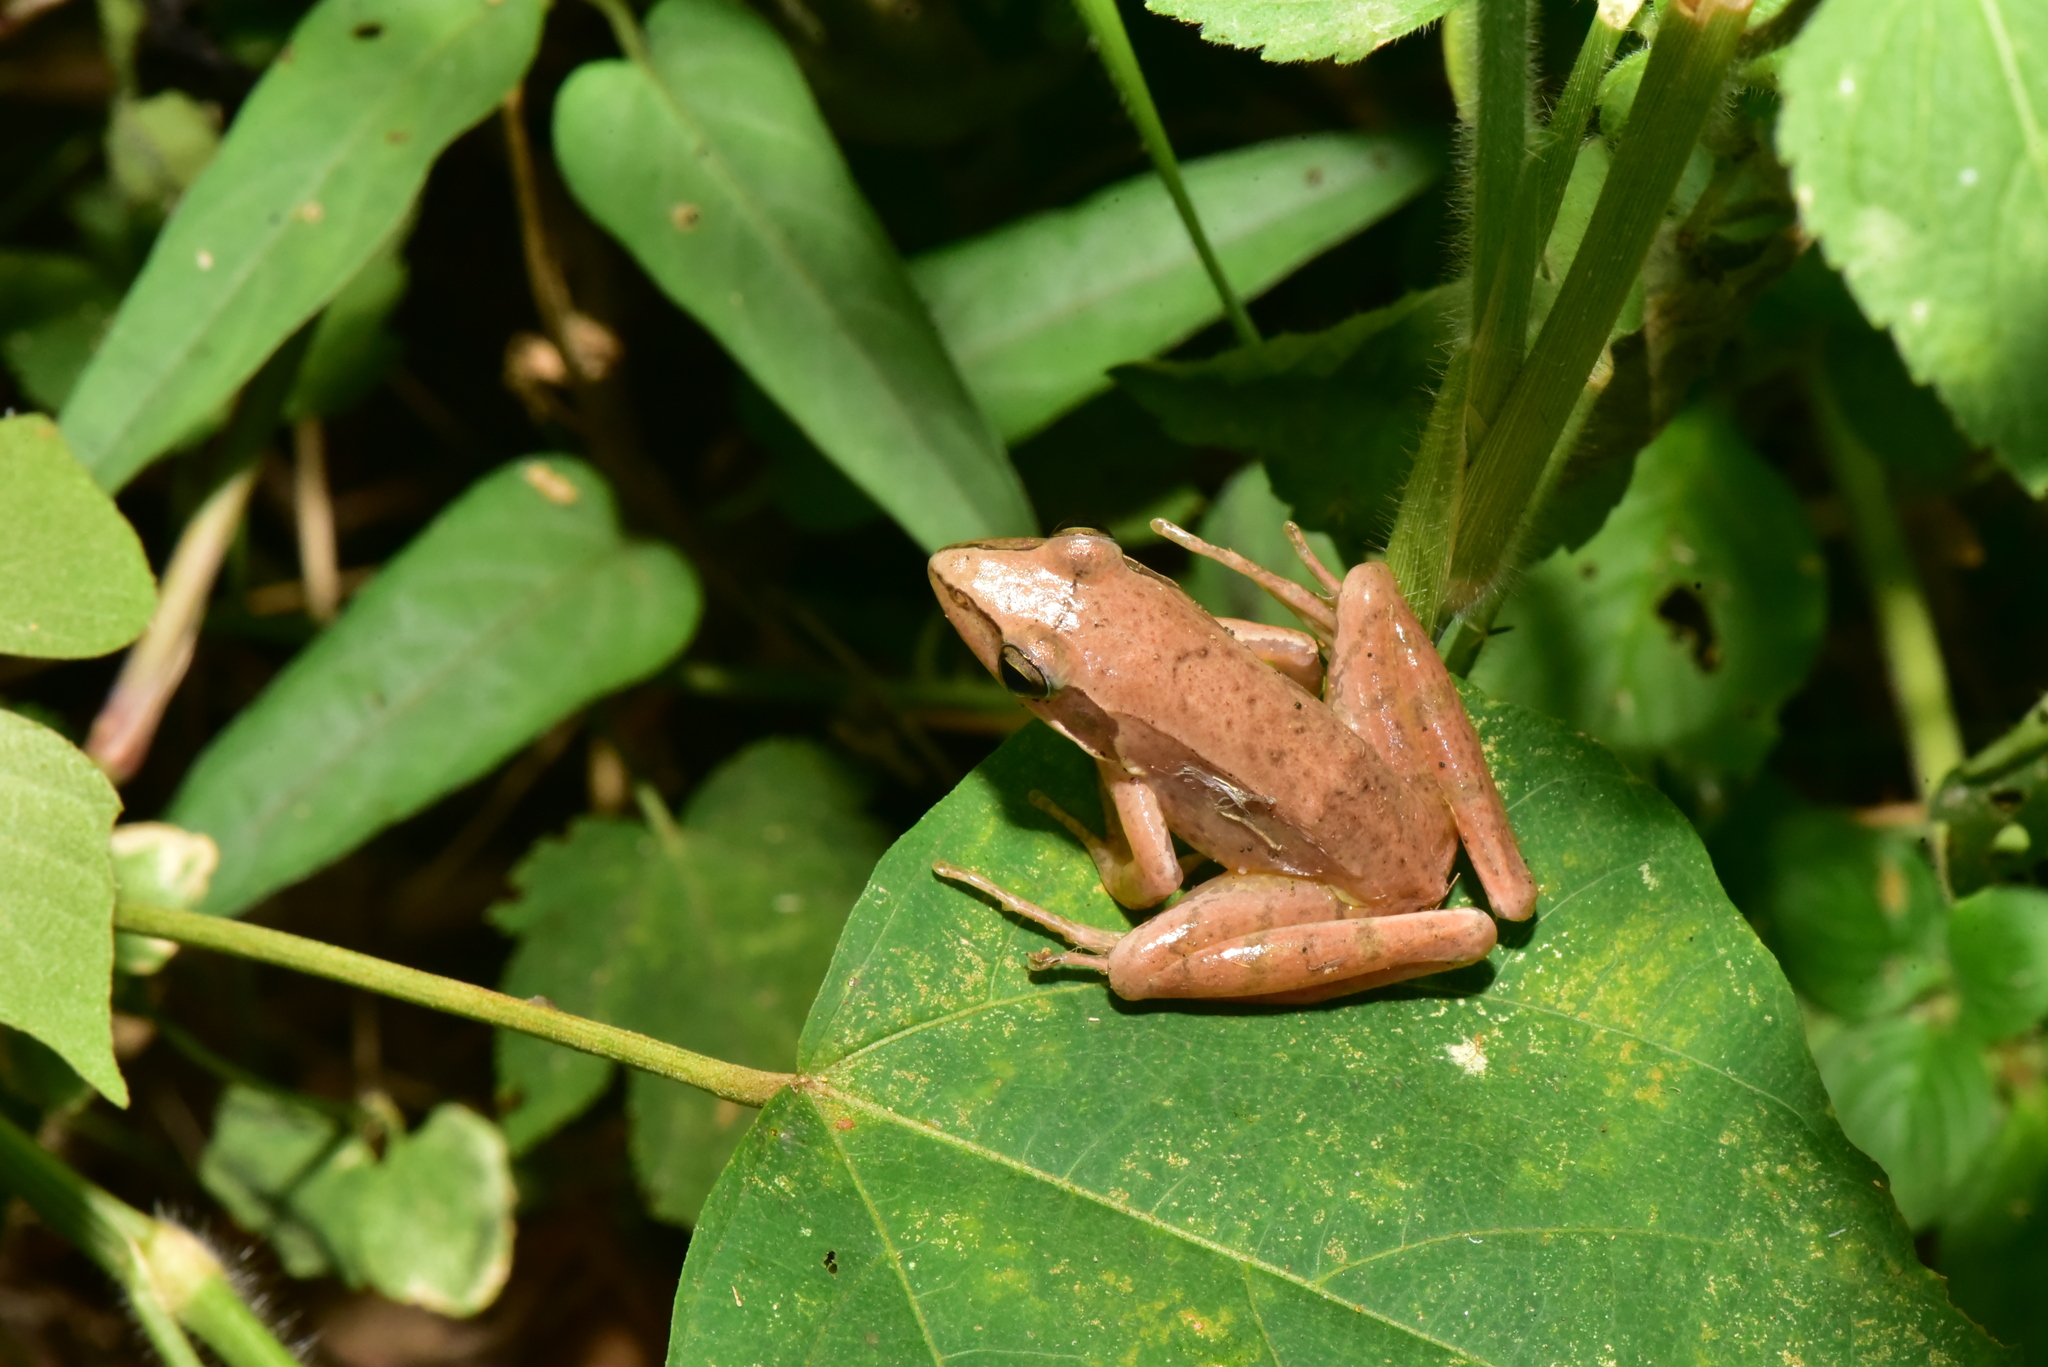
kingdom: Animalia
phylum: Chordata
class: Amphibia
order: Anura
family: Ranidae
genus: Rana
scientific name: Rana longicrus
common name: Long-legged brown frog
